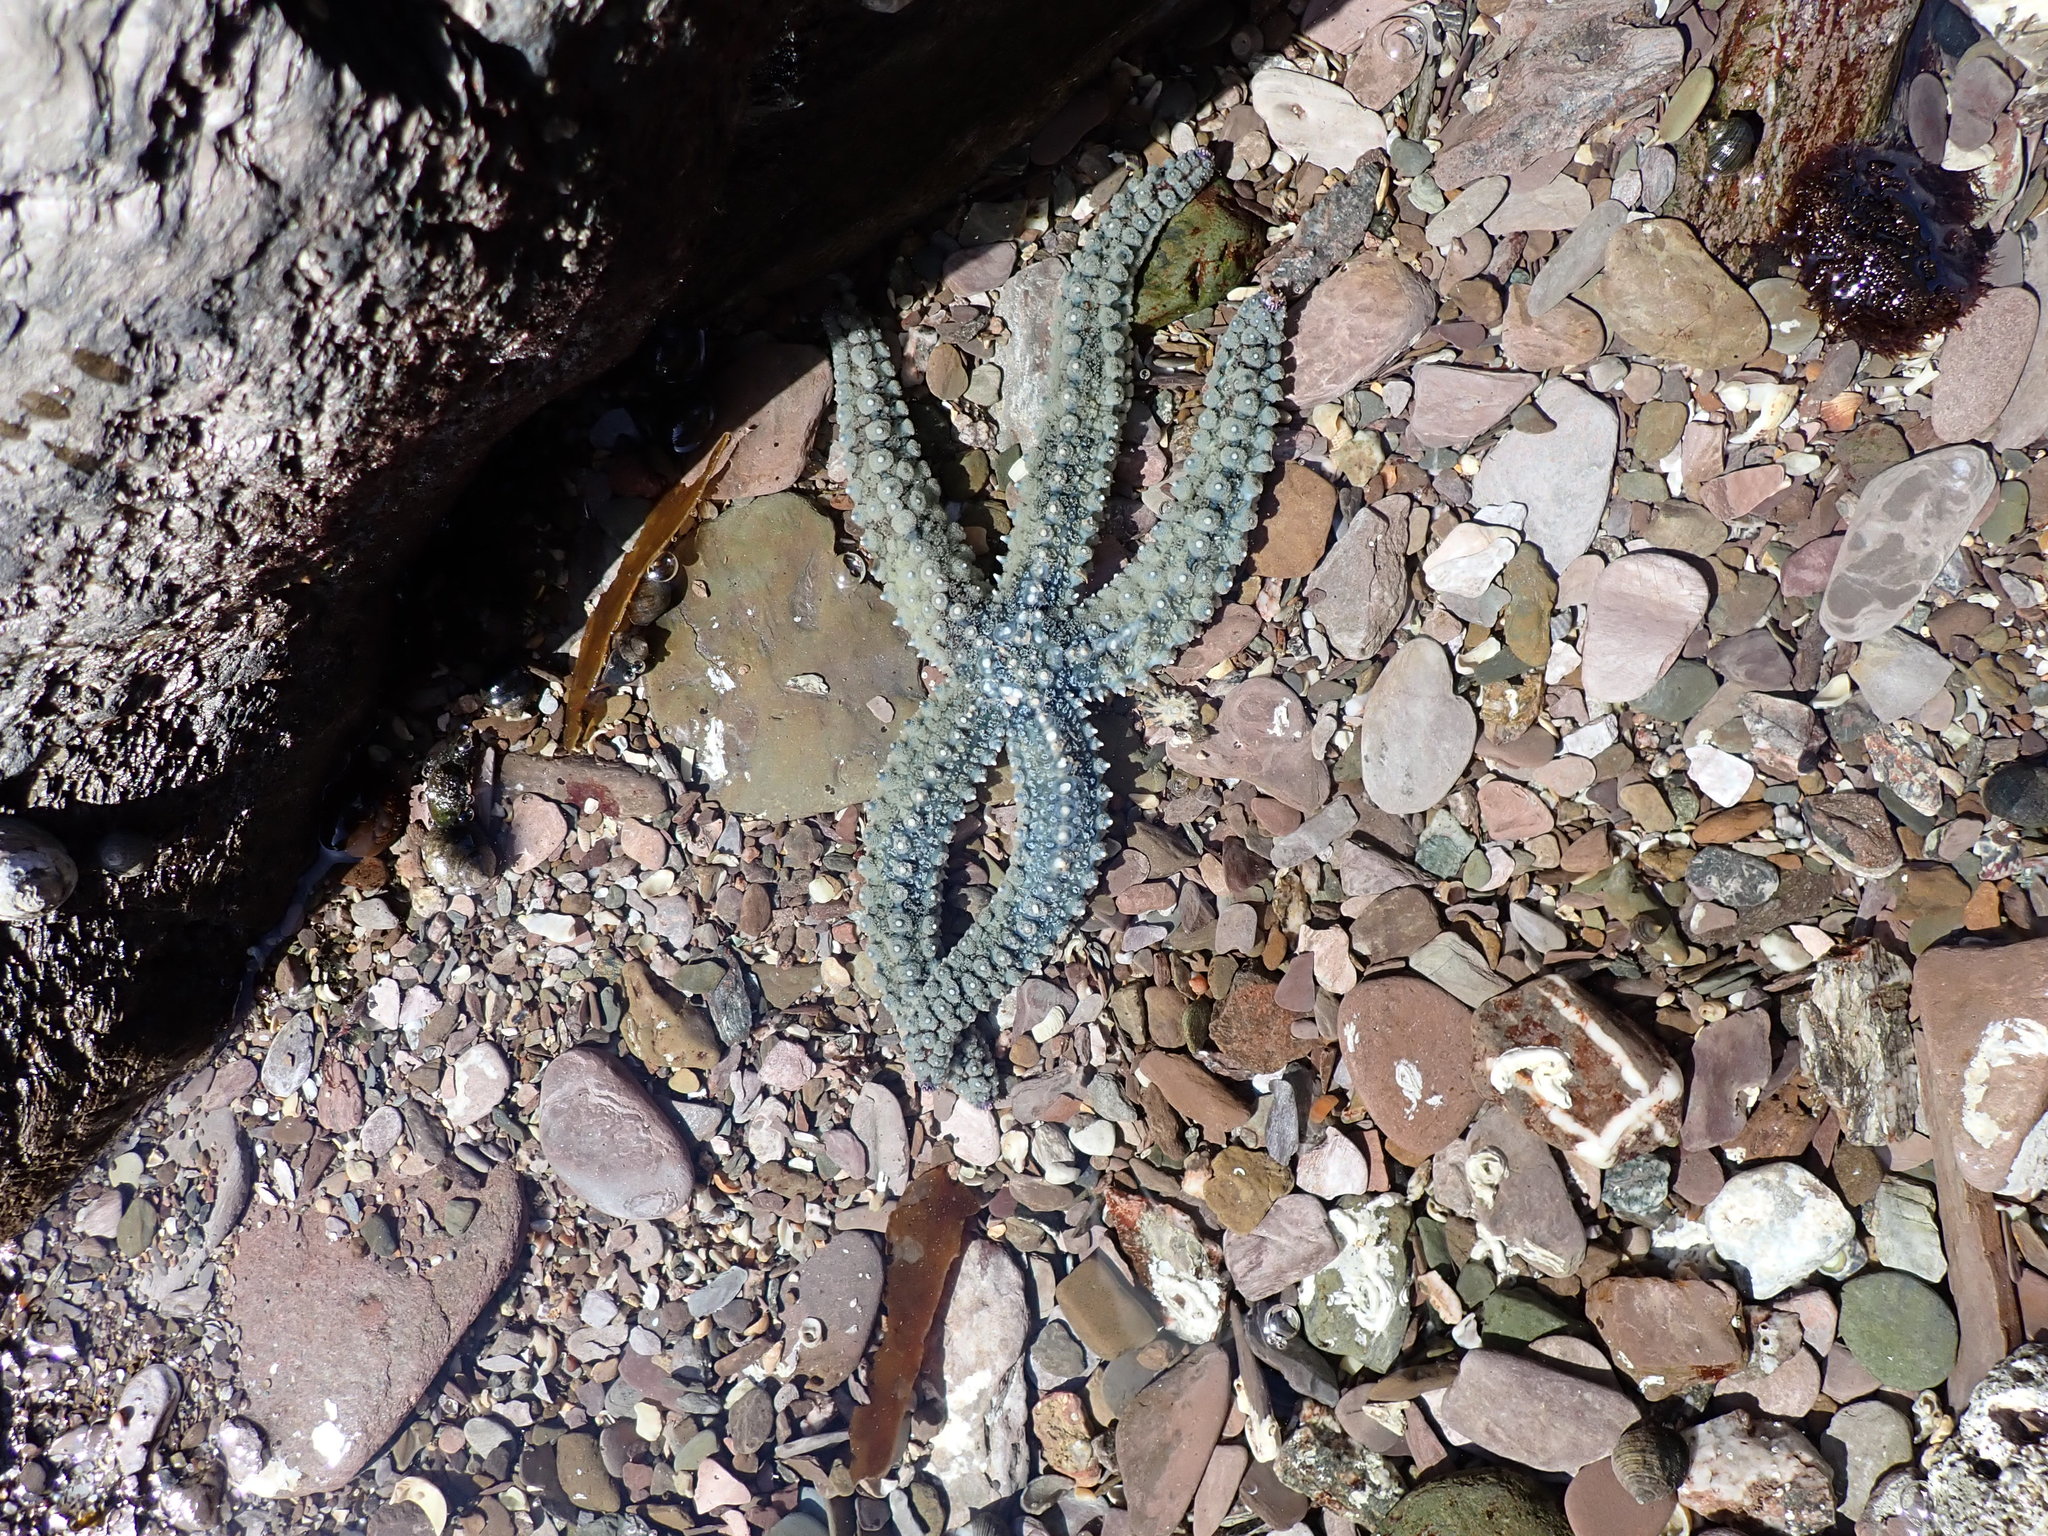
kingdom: Animalia
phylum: Echinodermata
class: Asteroidea
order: Forcipulatida
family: Asteriidae
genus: Marthasterias
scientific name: Marthasterias glacialis
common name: Spiny starfish
